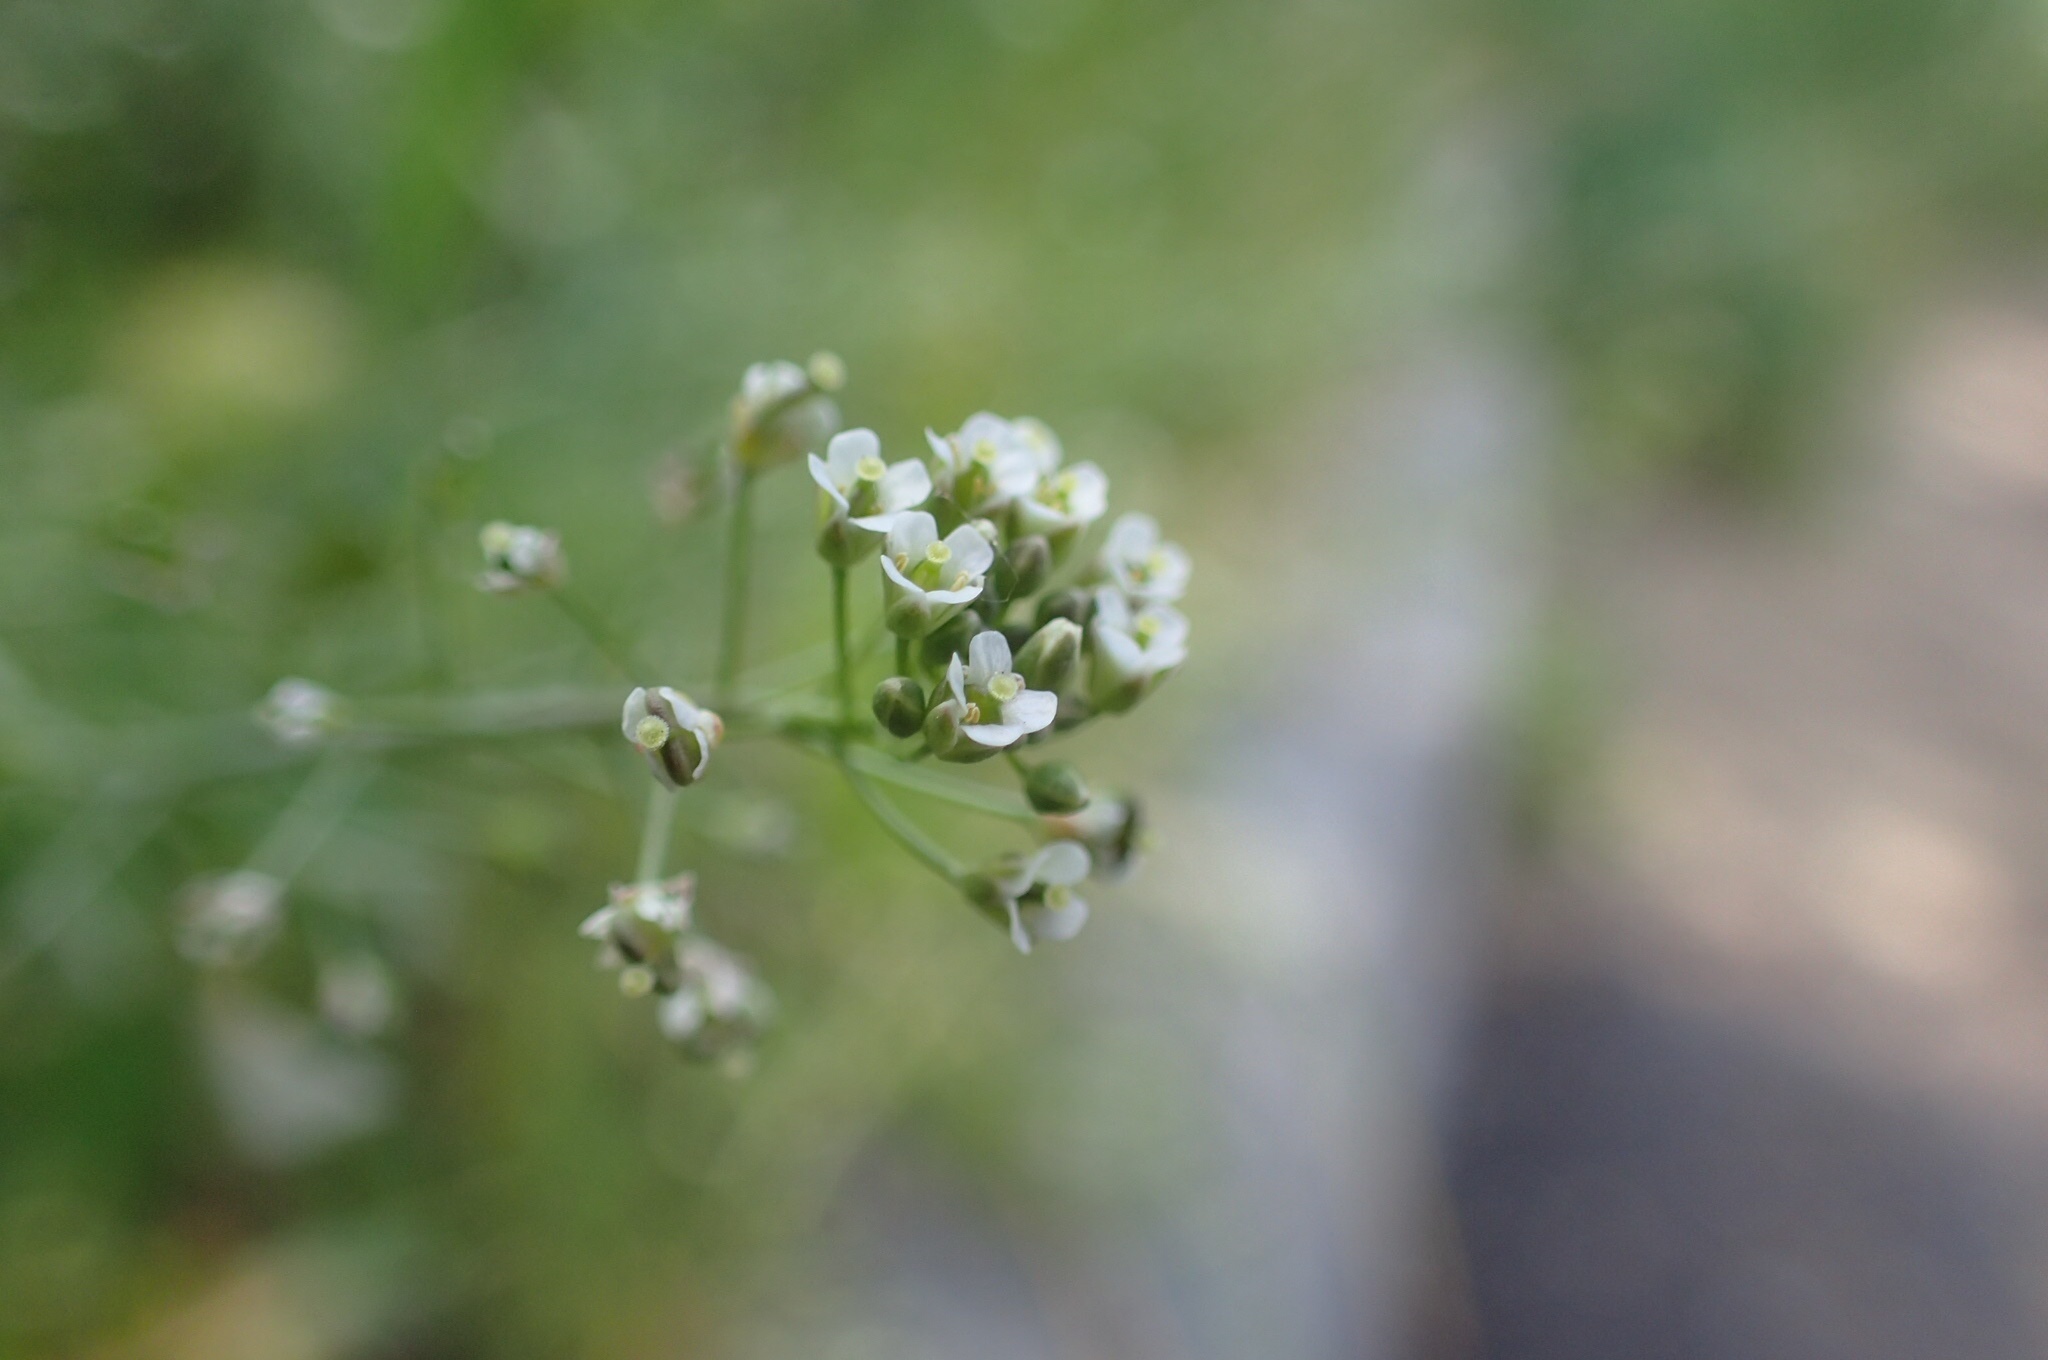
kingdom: Plantae
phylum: Tracheophyta
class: Magnoliopsida
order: Brassicales
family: Brassicaceae
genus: Capsella
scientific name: Capsella bursa-pastoris
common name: Shepherd's purse
